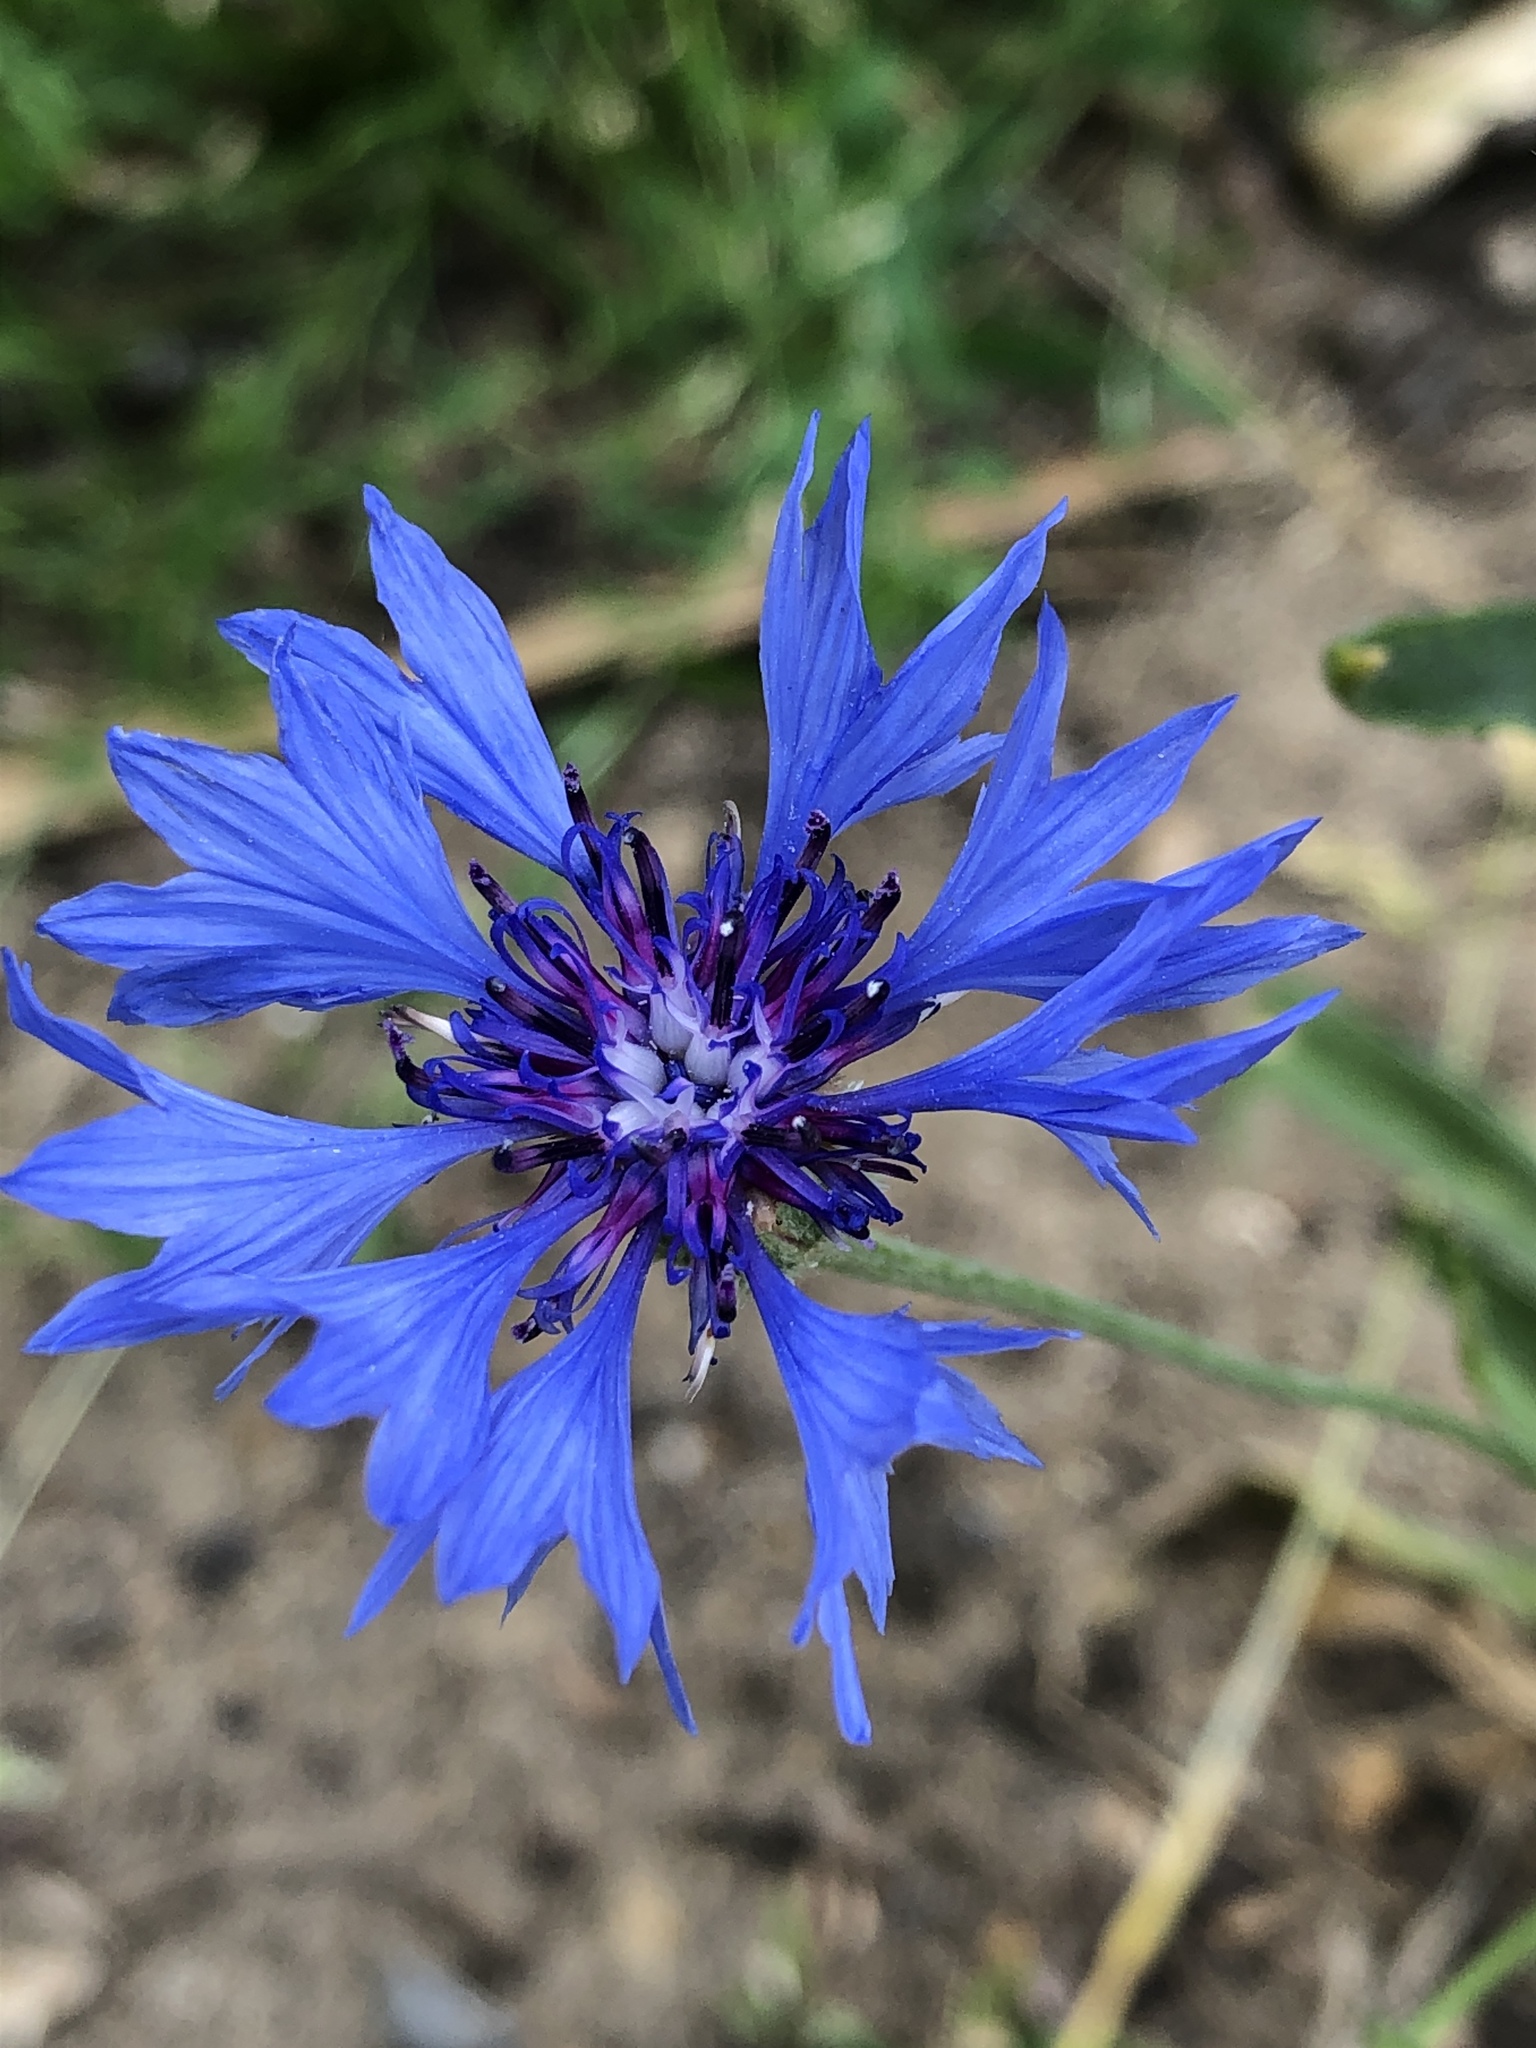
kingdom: Plantae
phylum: Tracheophyta
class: Magnoliopsida
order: Asterales
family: Asteraceae
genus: Centaurea
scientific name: Centaurea cyanus
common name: Cornflower
